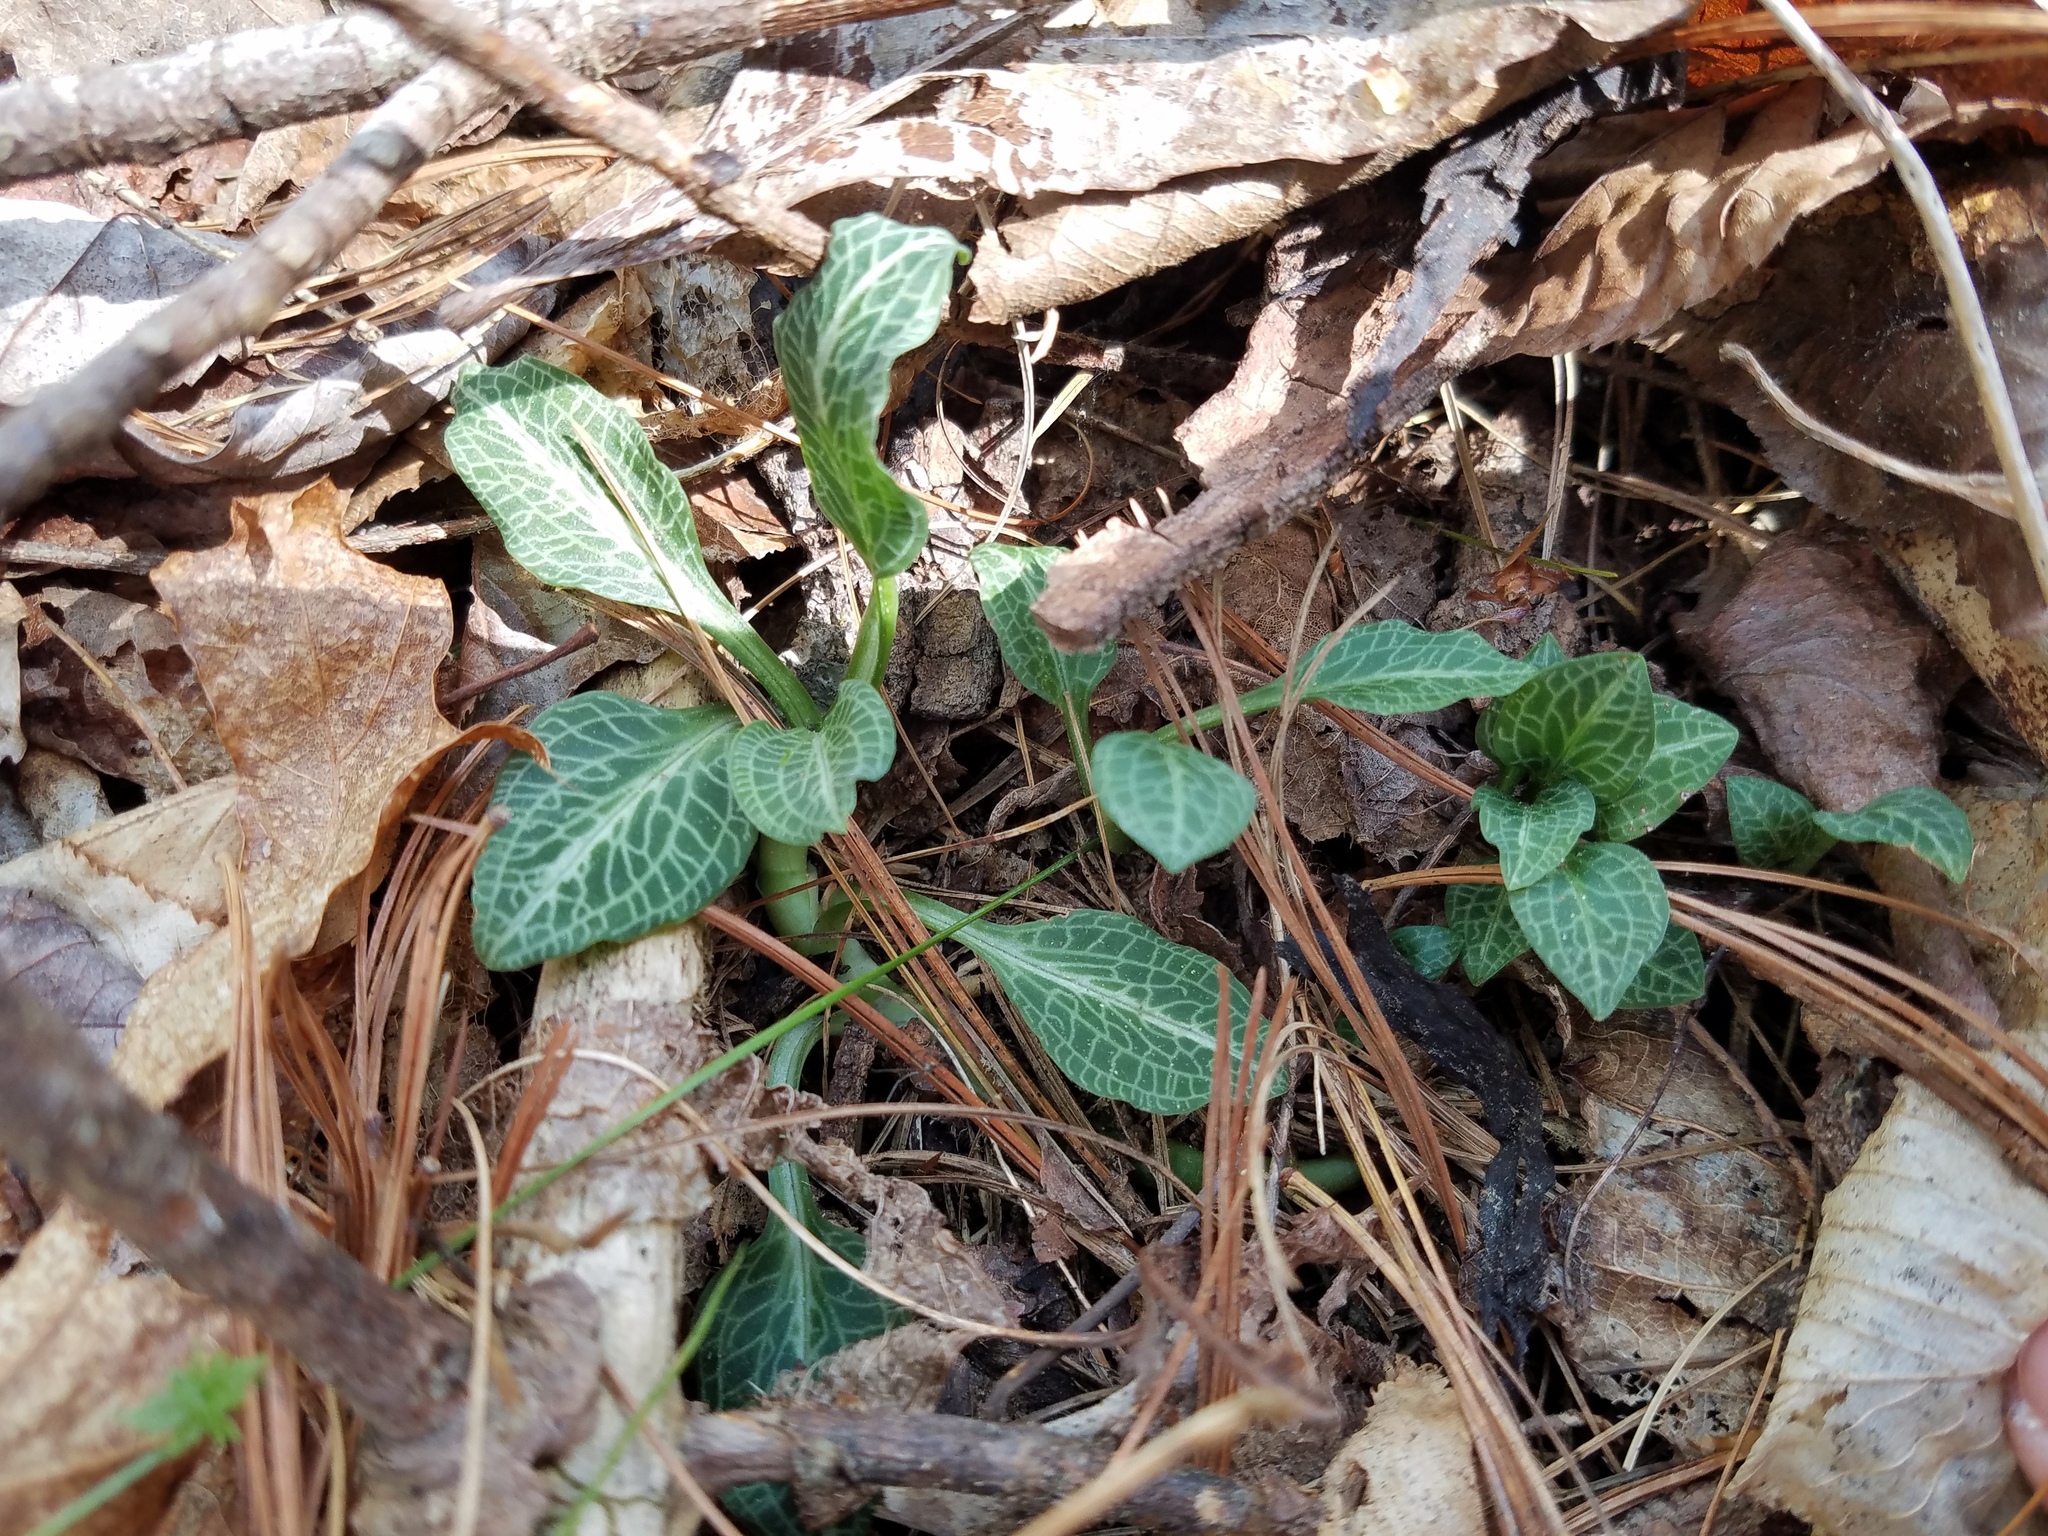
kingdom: Plantae
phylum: Tracheophyta
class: Liliopsida
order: Asparagales
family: Orchidaceae
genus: Goodyera
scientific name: Goodyera pubescens
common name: Downy rattlesnake-plantain
